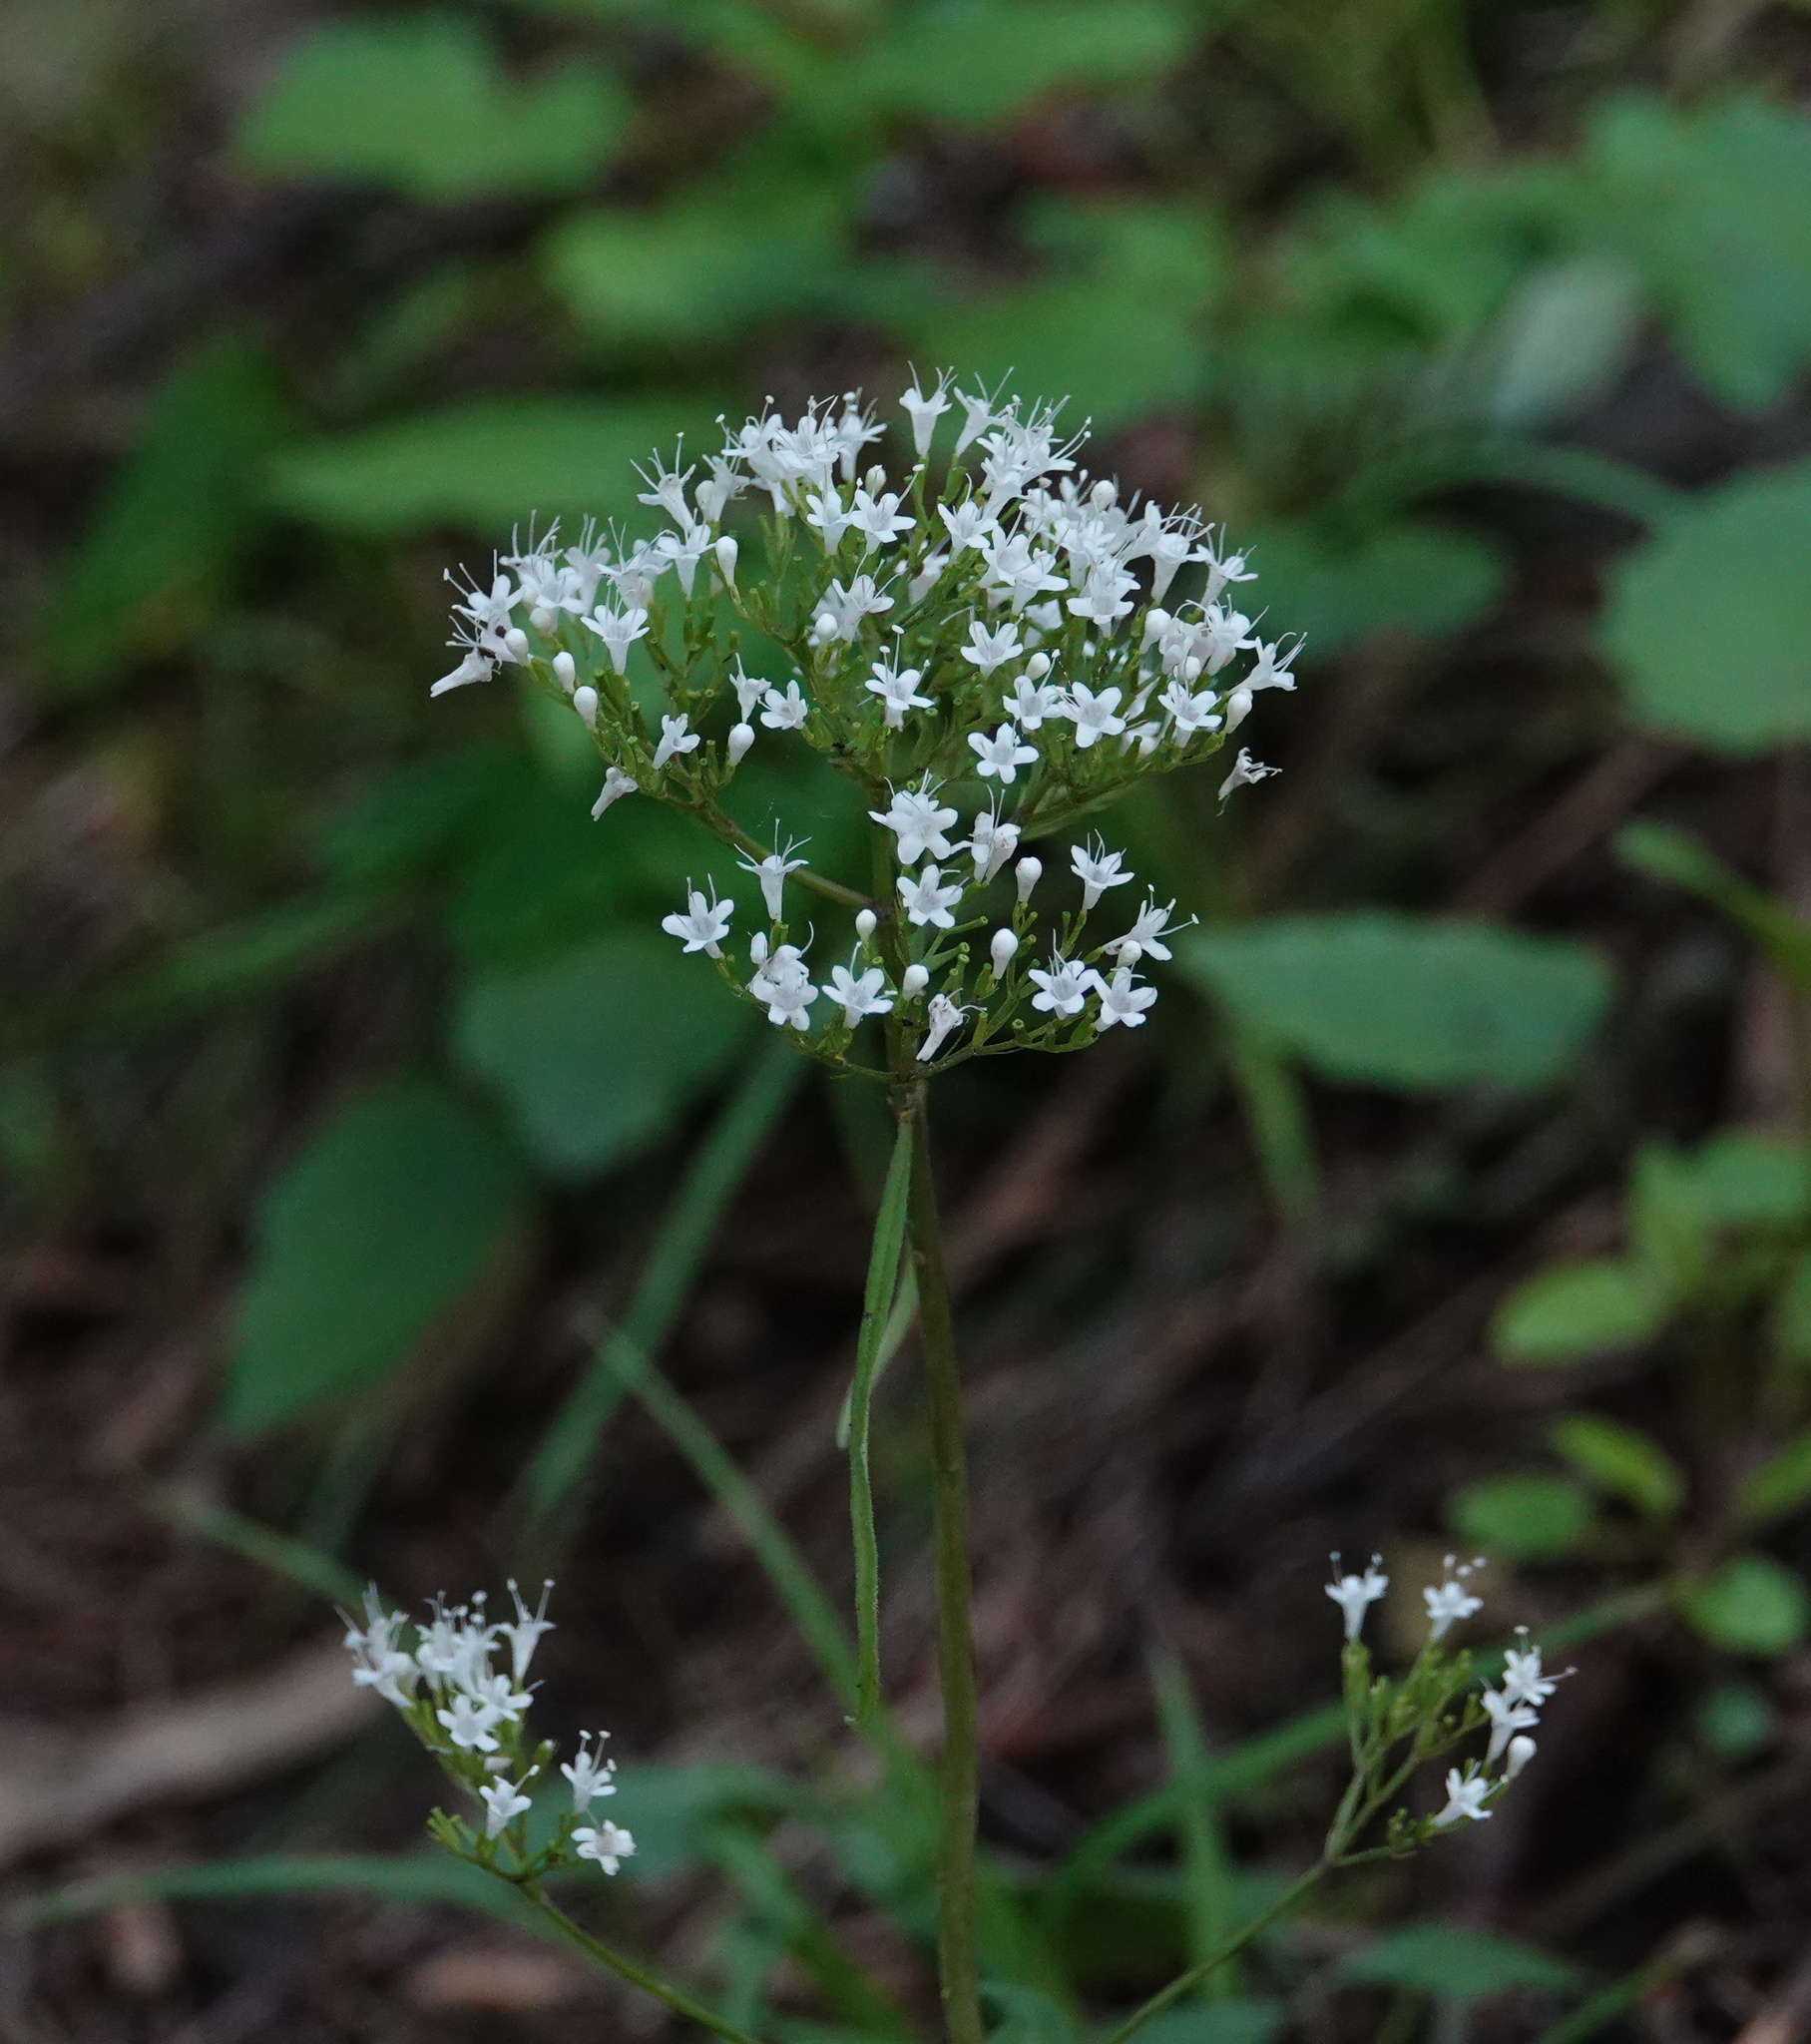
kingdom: Plantae
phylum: Tracheophyta
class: Magnoliopsida
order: Dipsacales
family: Caprifoliaceae
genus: Valeriana
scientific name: Valeriana officinalis
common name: Common valerian
